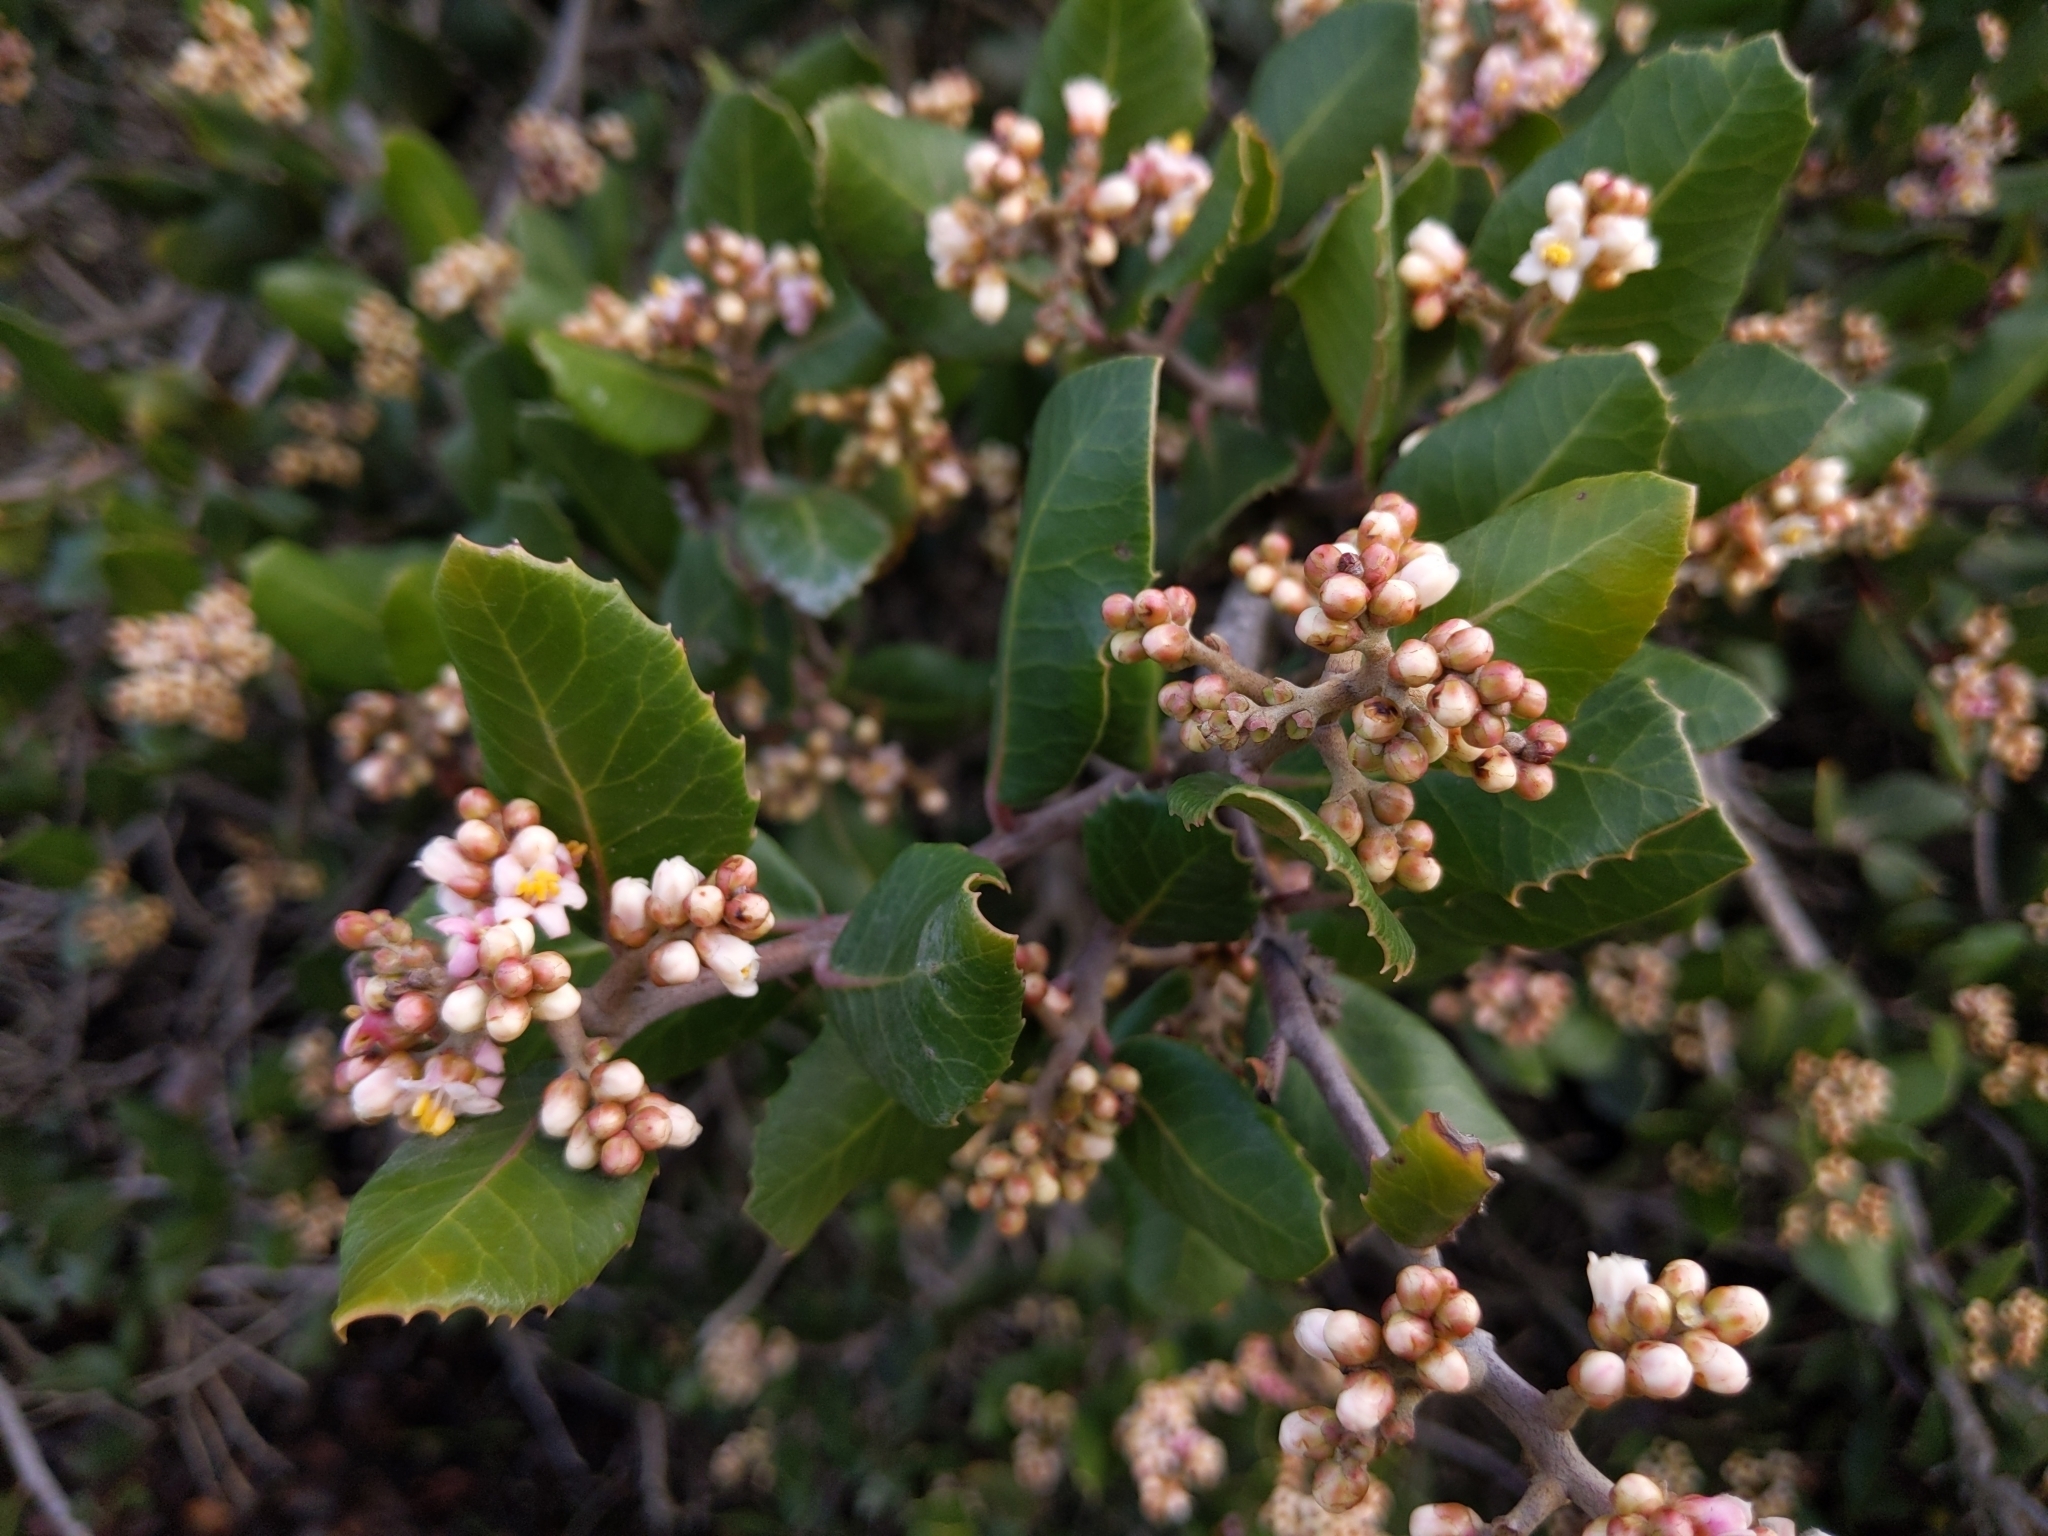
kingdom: Plantae
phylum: Tracheophyta
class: Magnoliopsida
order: Sapindales
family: Anacardiaceae
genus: Rhus
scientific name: Rhus integrifolia
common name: Lemonade sumac
